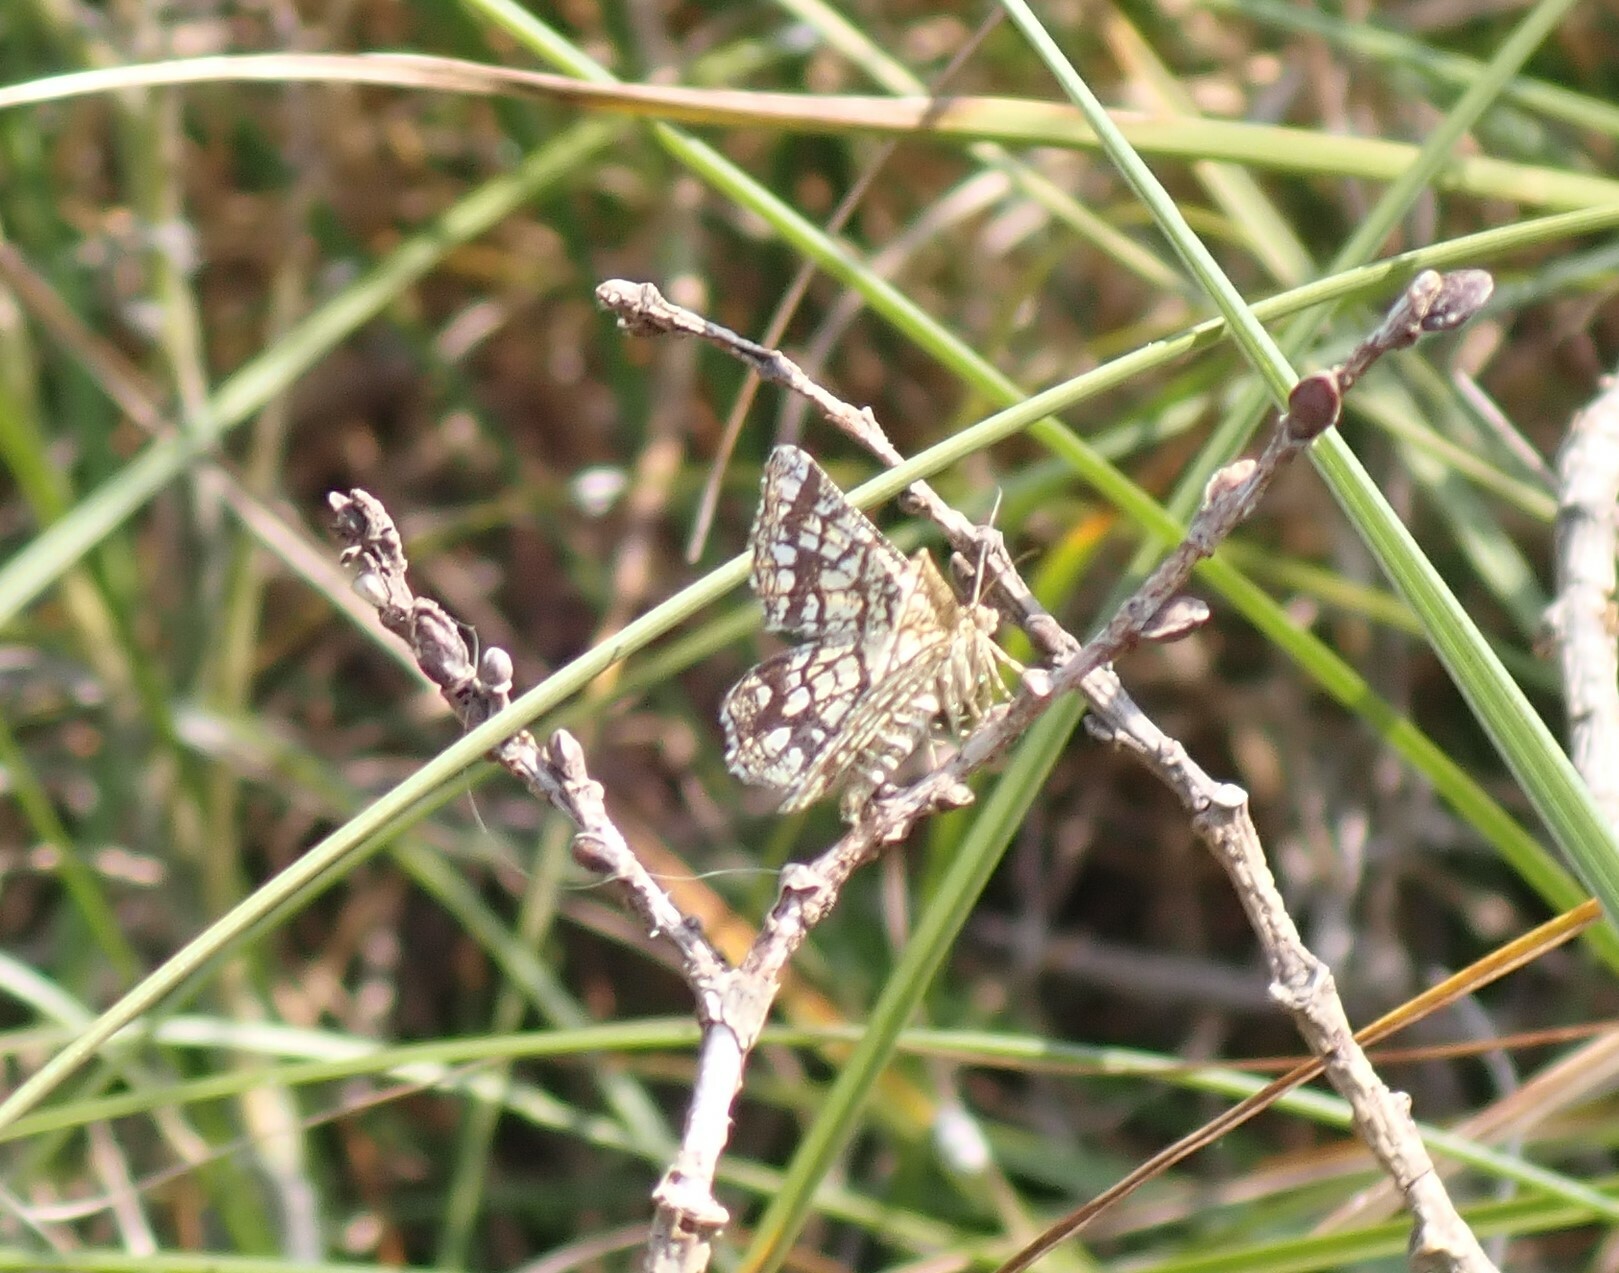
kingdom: Animalia
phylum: Arthropoda
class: Insecta
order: Lepidoptera
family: Geometridae
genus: Chiasmia
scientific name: Chiasmia clathrata
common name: Latticed heath
